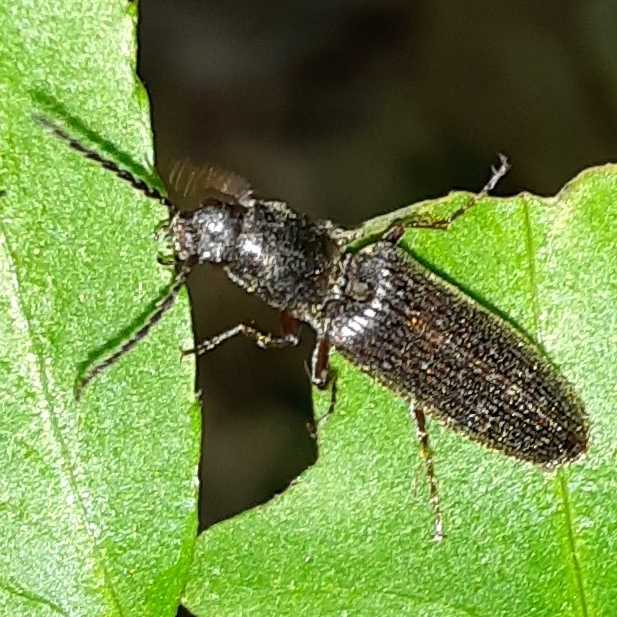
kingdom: Animalia
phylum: Arthropoda
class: Insecta
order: Coleoptera
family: Elateridae
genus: Sylvanelater
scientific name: Sylvanelater cylindriformis
